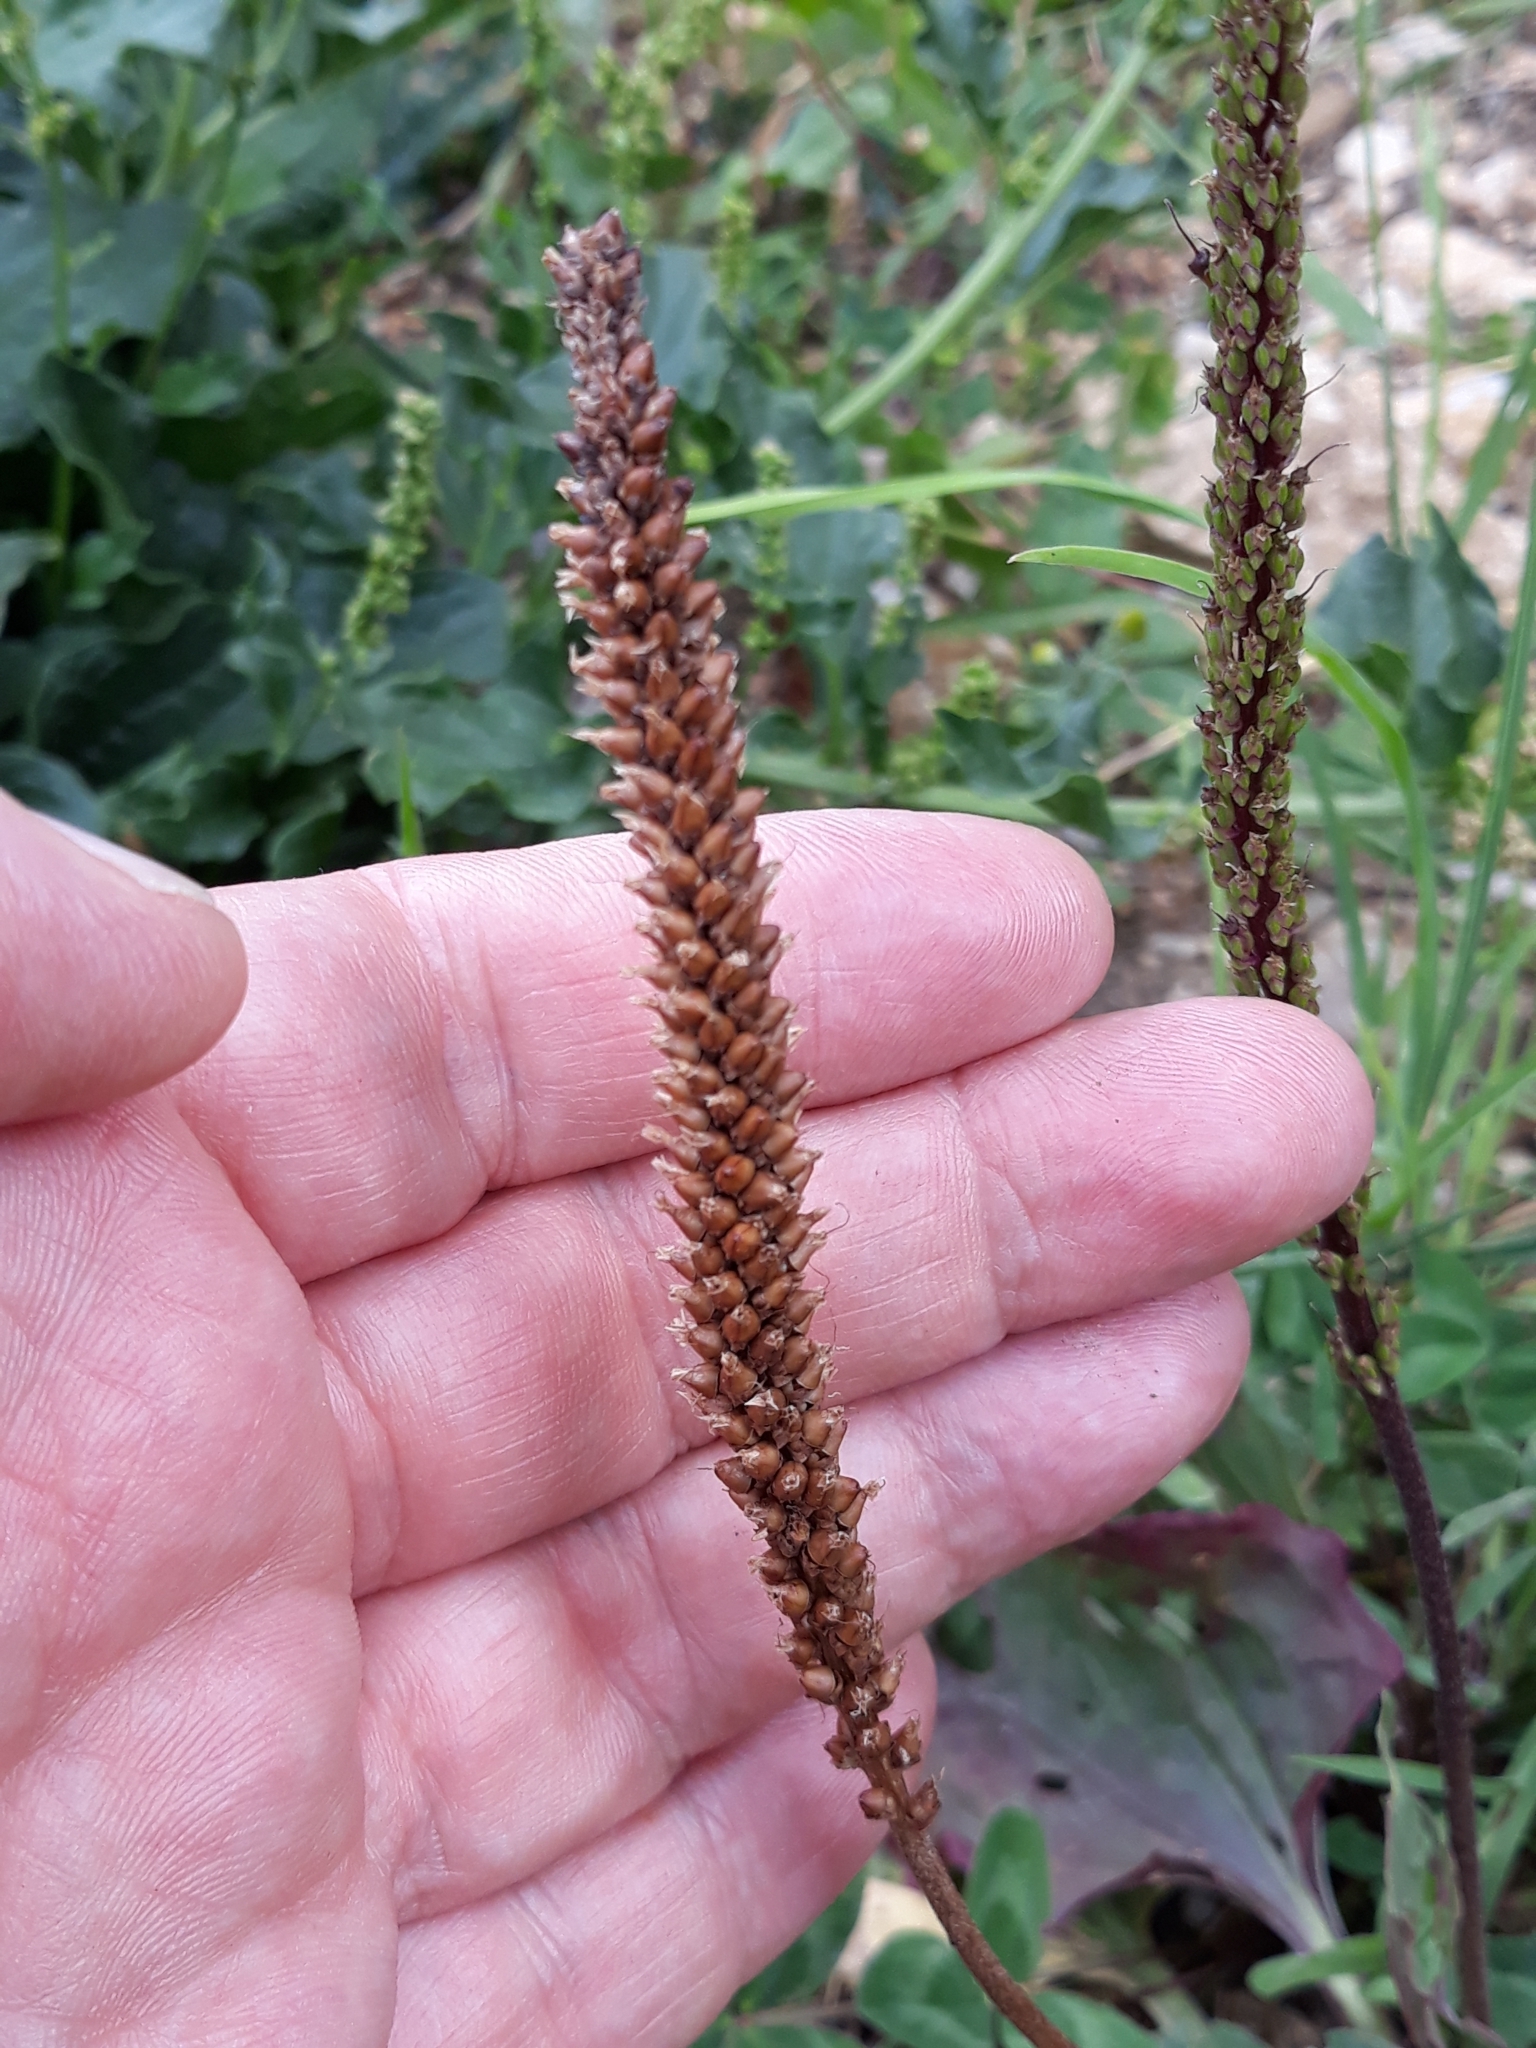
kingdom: Plantae
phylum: Tracheophyta
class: Magnoliopsida
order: Lamiales
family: Plantaginaceae
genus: Plantago
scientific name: Plantago major
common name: Common plantain
